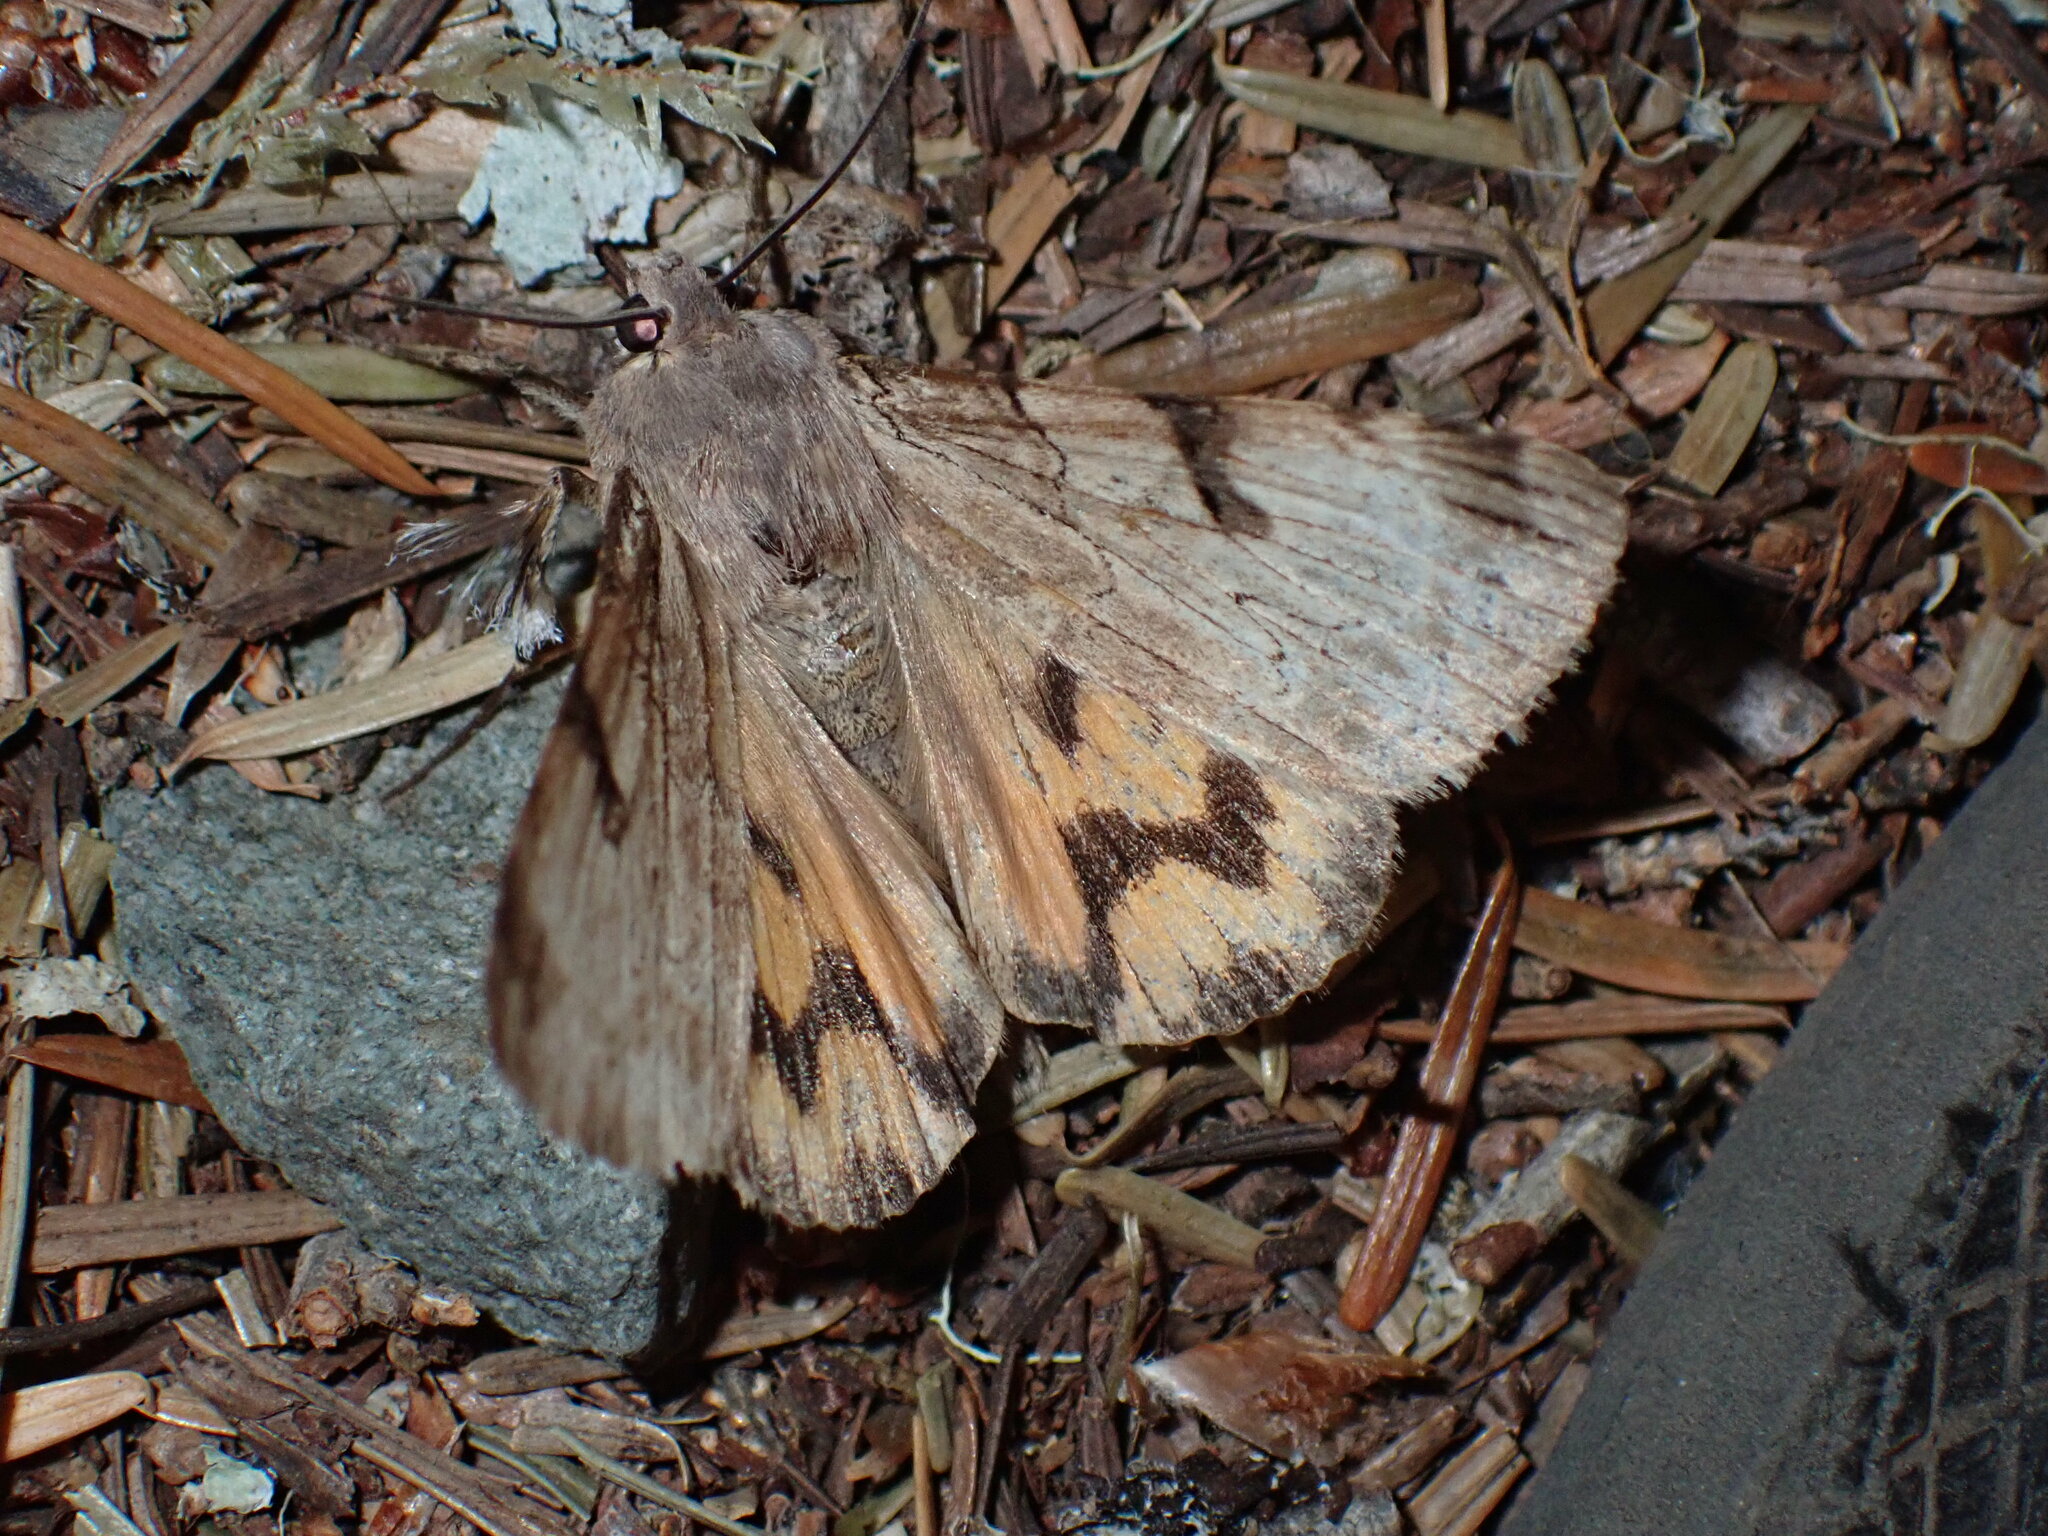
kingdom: Animalia
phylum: Arthropoda
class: Insecta
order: Lepidoptera
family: Erebidae
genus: Drasteria
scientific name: Drasteria ochracea
